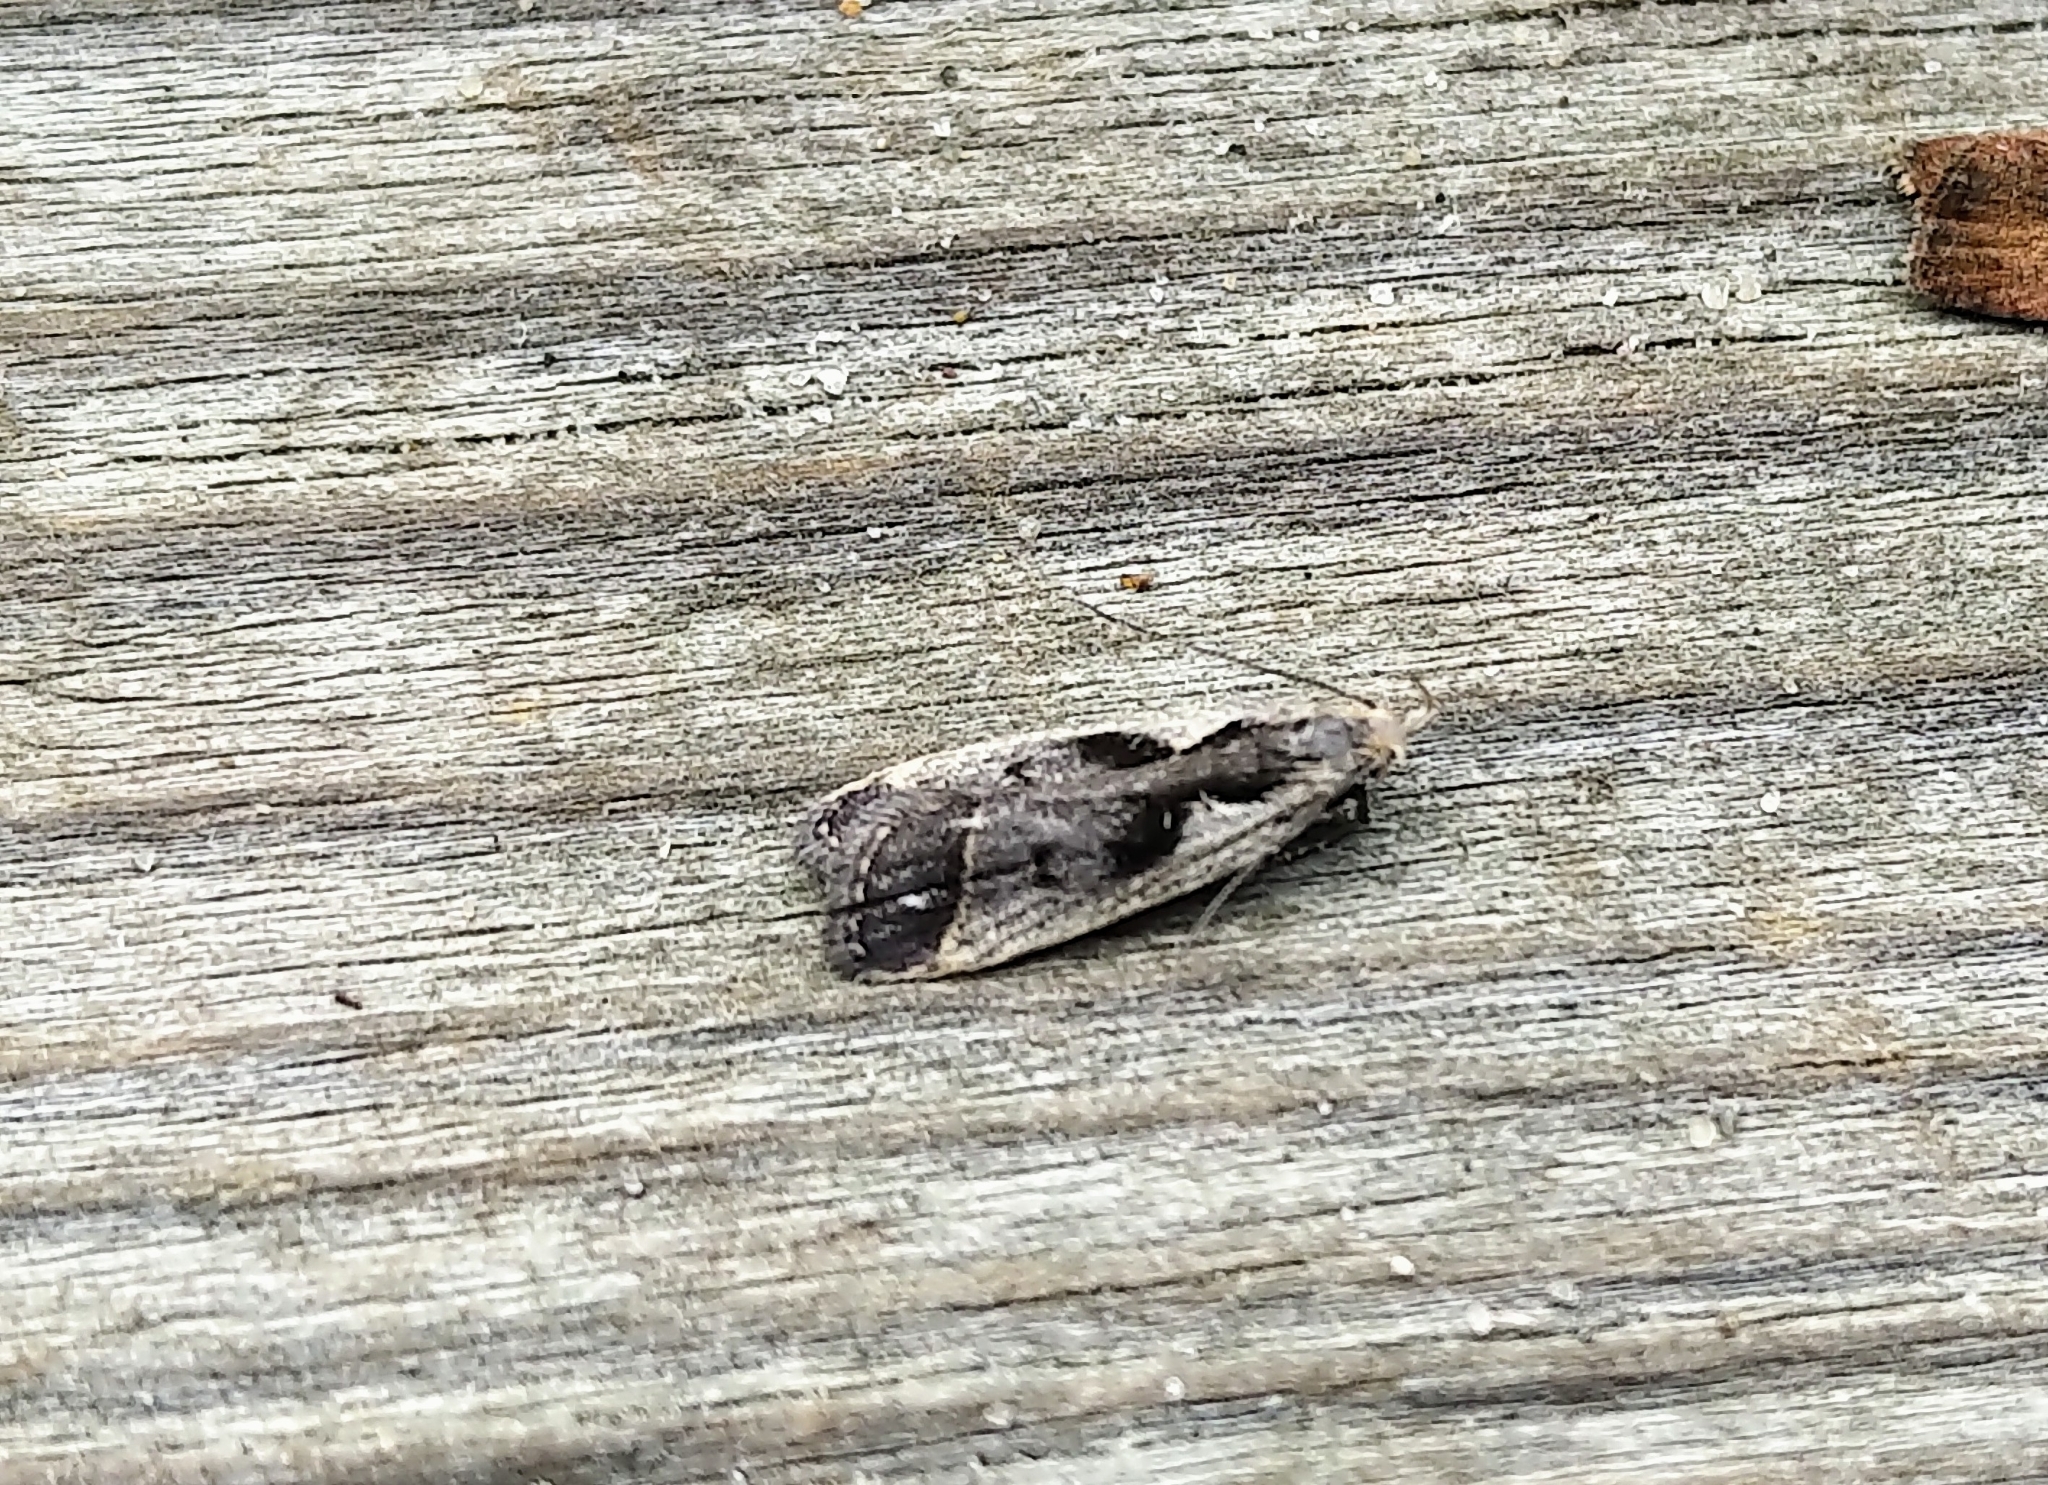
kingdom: Animalia
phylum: Arthropoda
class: Insecta
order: Lepidoptera
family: Gelechiidae
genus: Dichomeris
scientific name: Dichomeris bilobella
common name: Bilobed dichomeris moth
